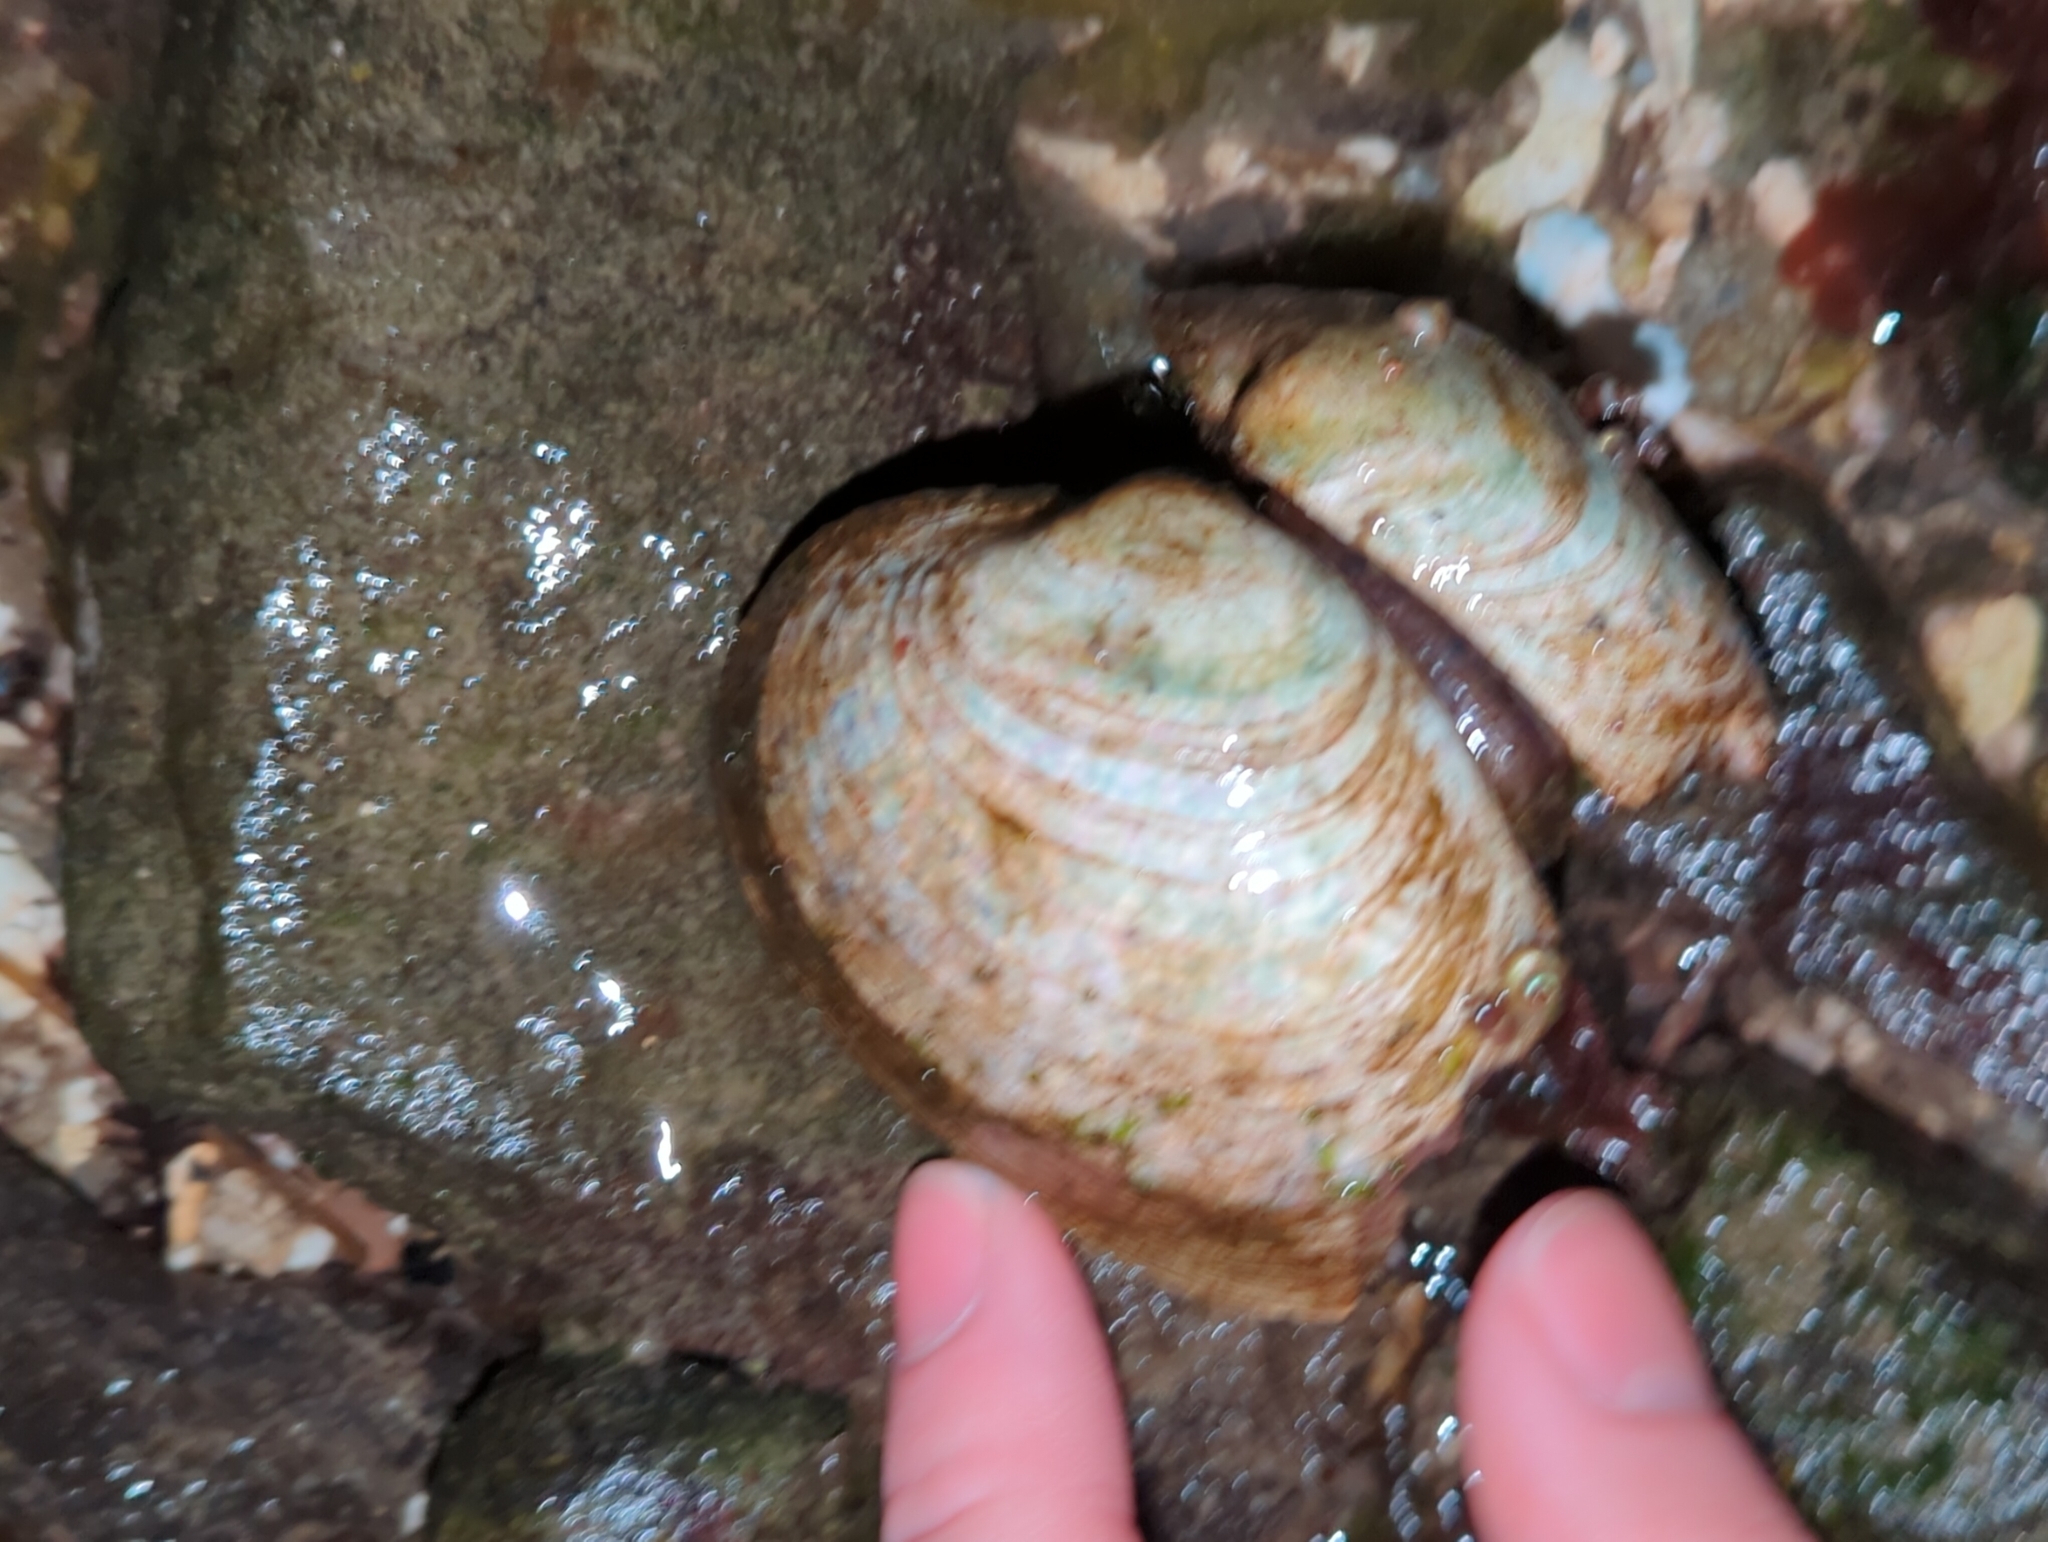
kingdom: Animalia
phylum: Mollusca
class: Bivalvia
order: Venerida
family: Veneridae
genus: Saxidomus
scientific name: Saxidomus gigantea
